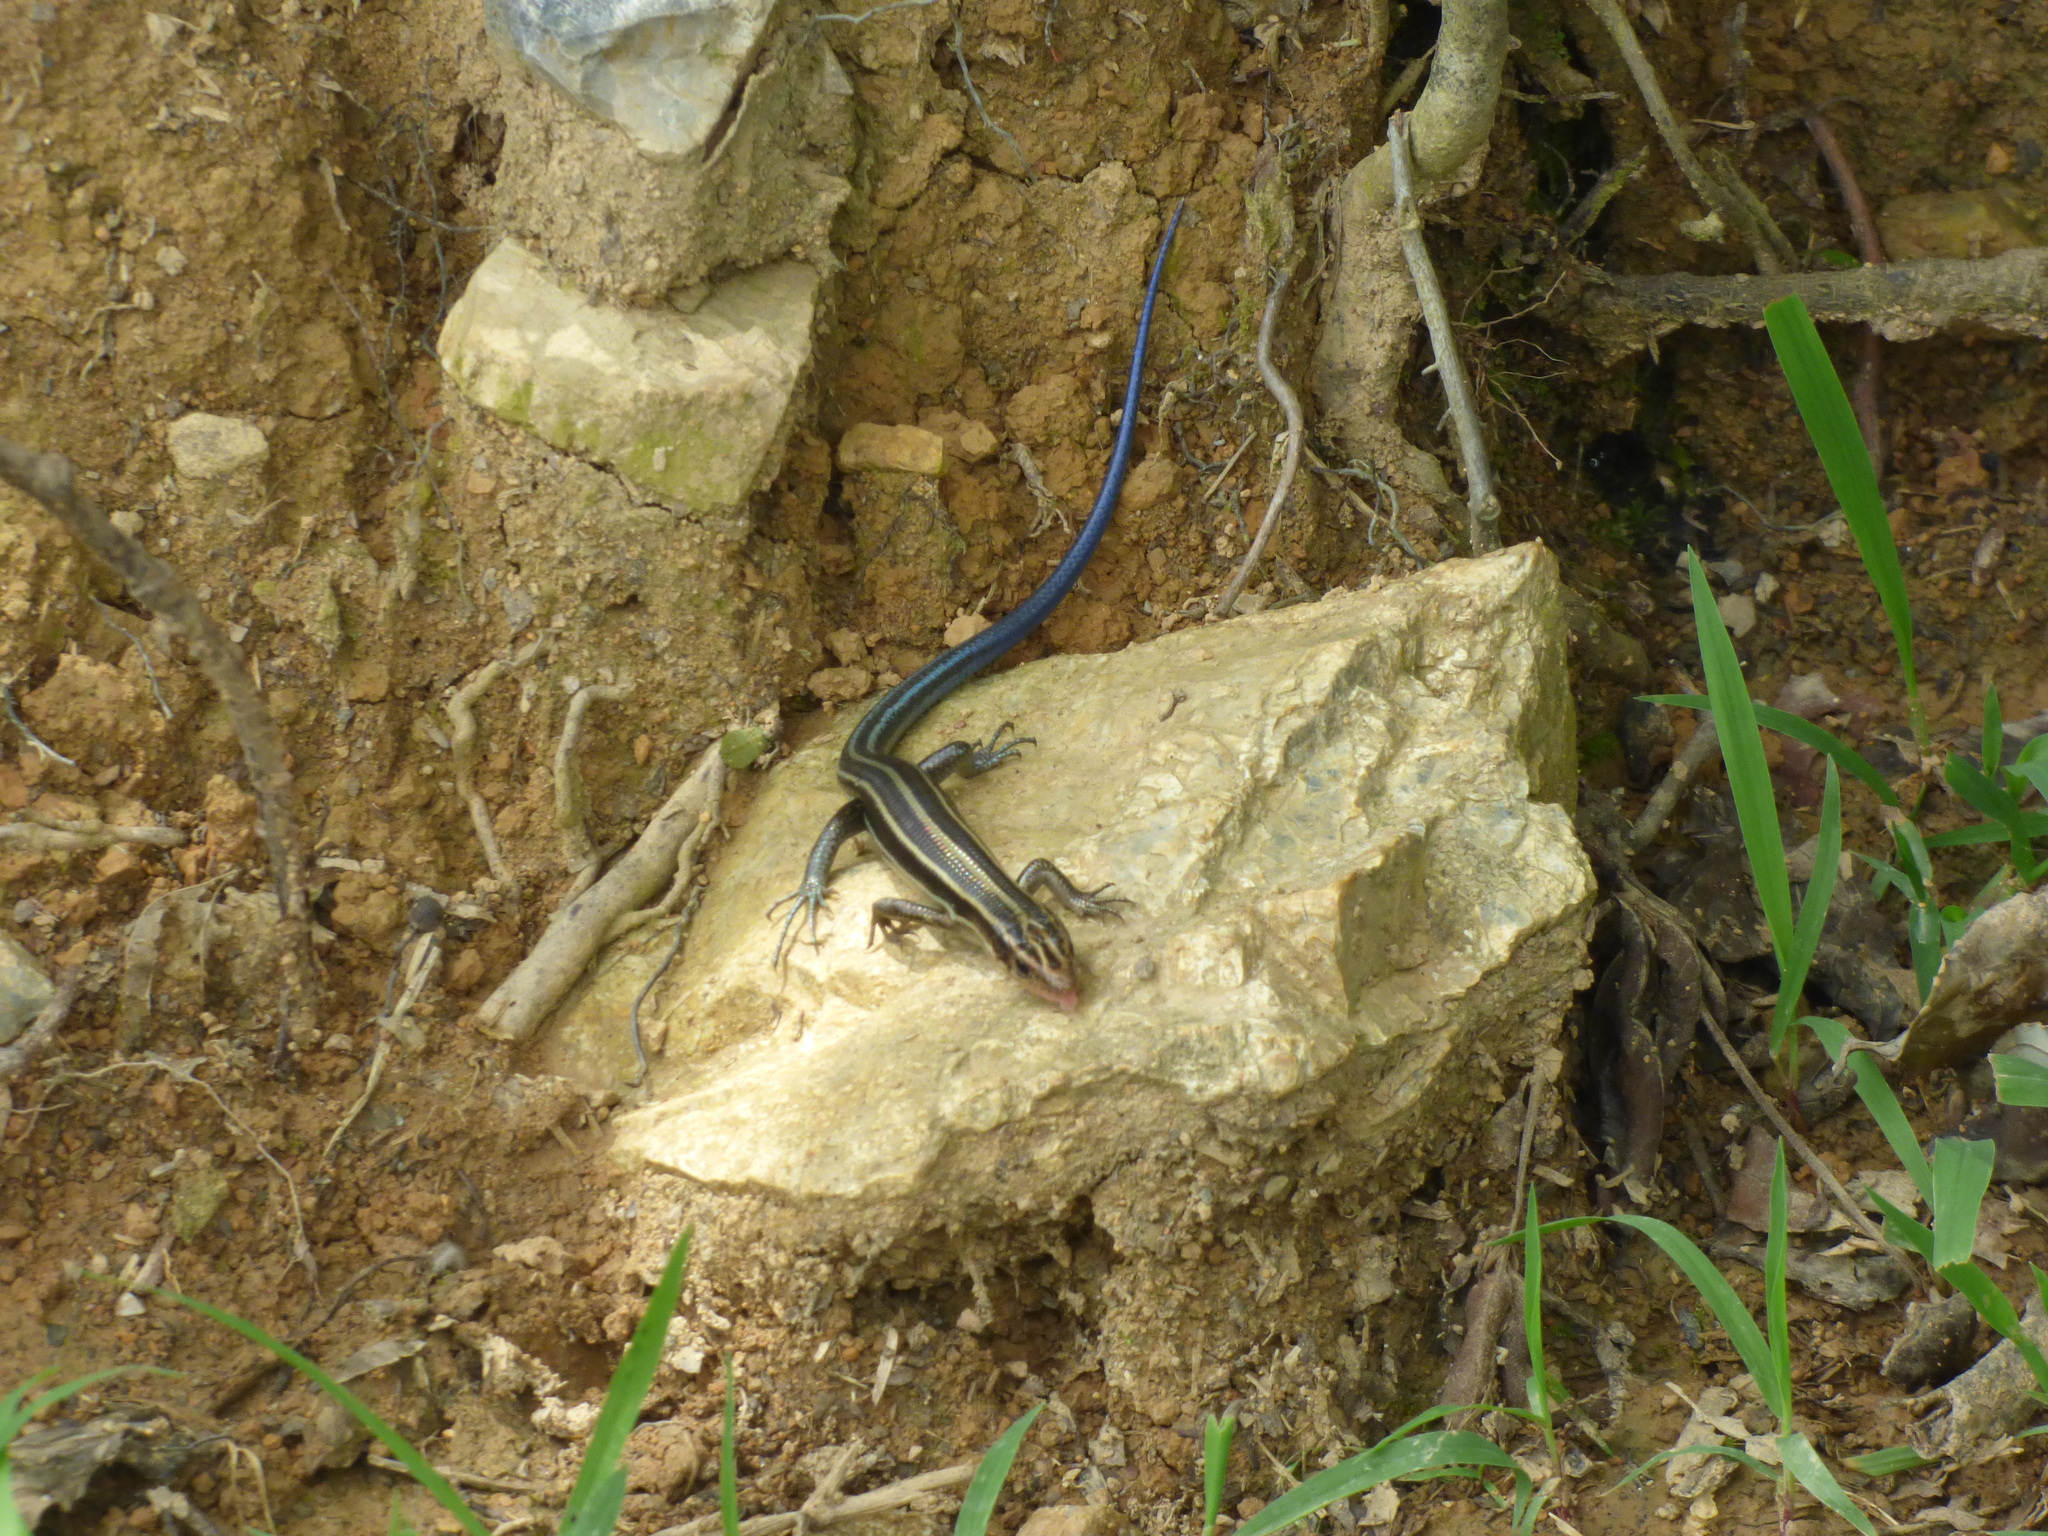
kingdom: Animalia
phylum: Chordata
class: Squamata
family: Scincidae
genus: Plestiodon
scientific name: Plestiodon japonicus
